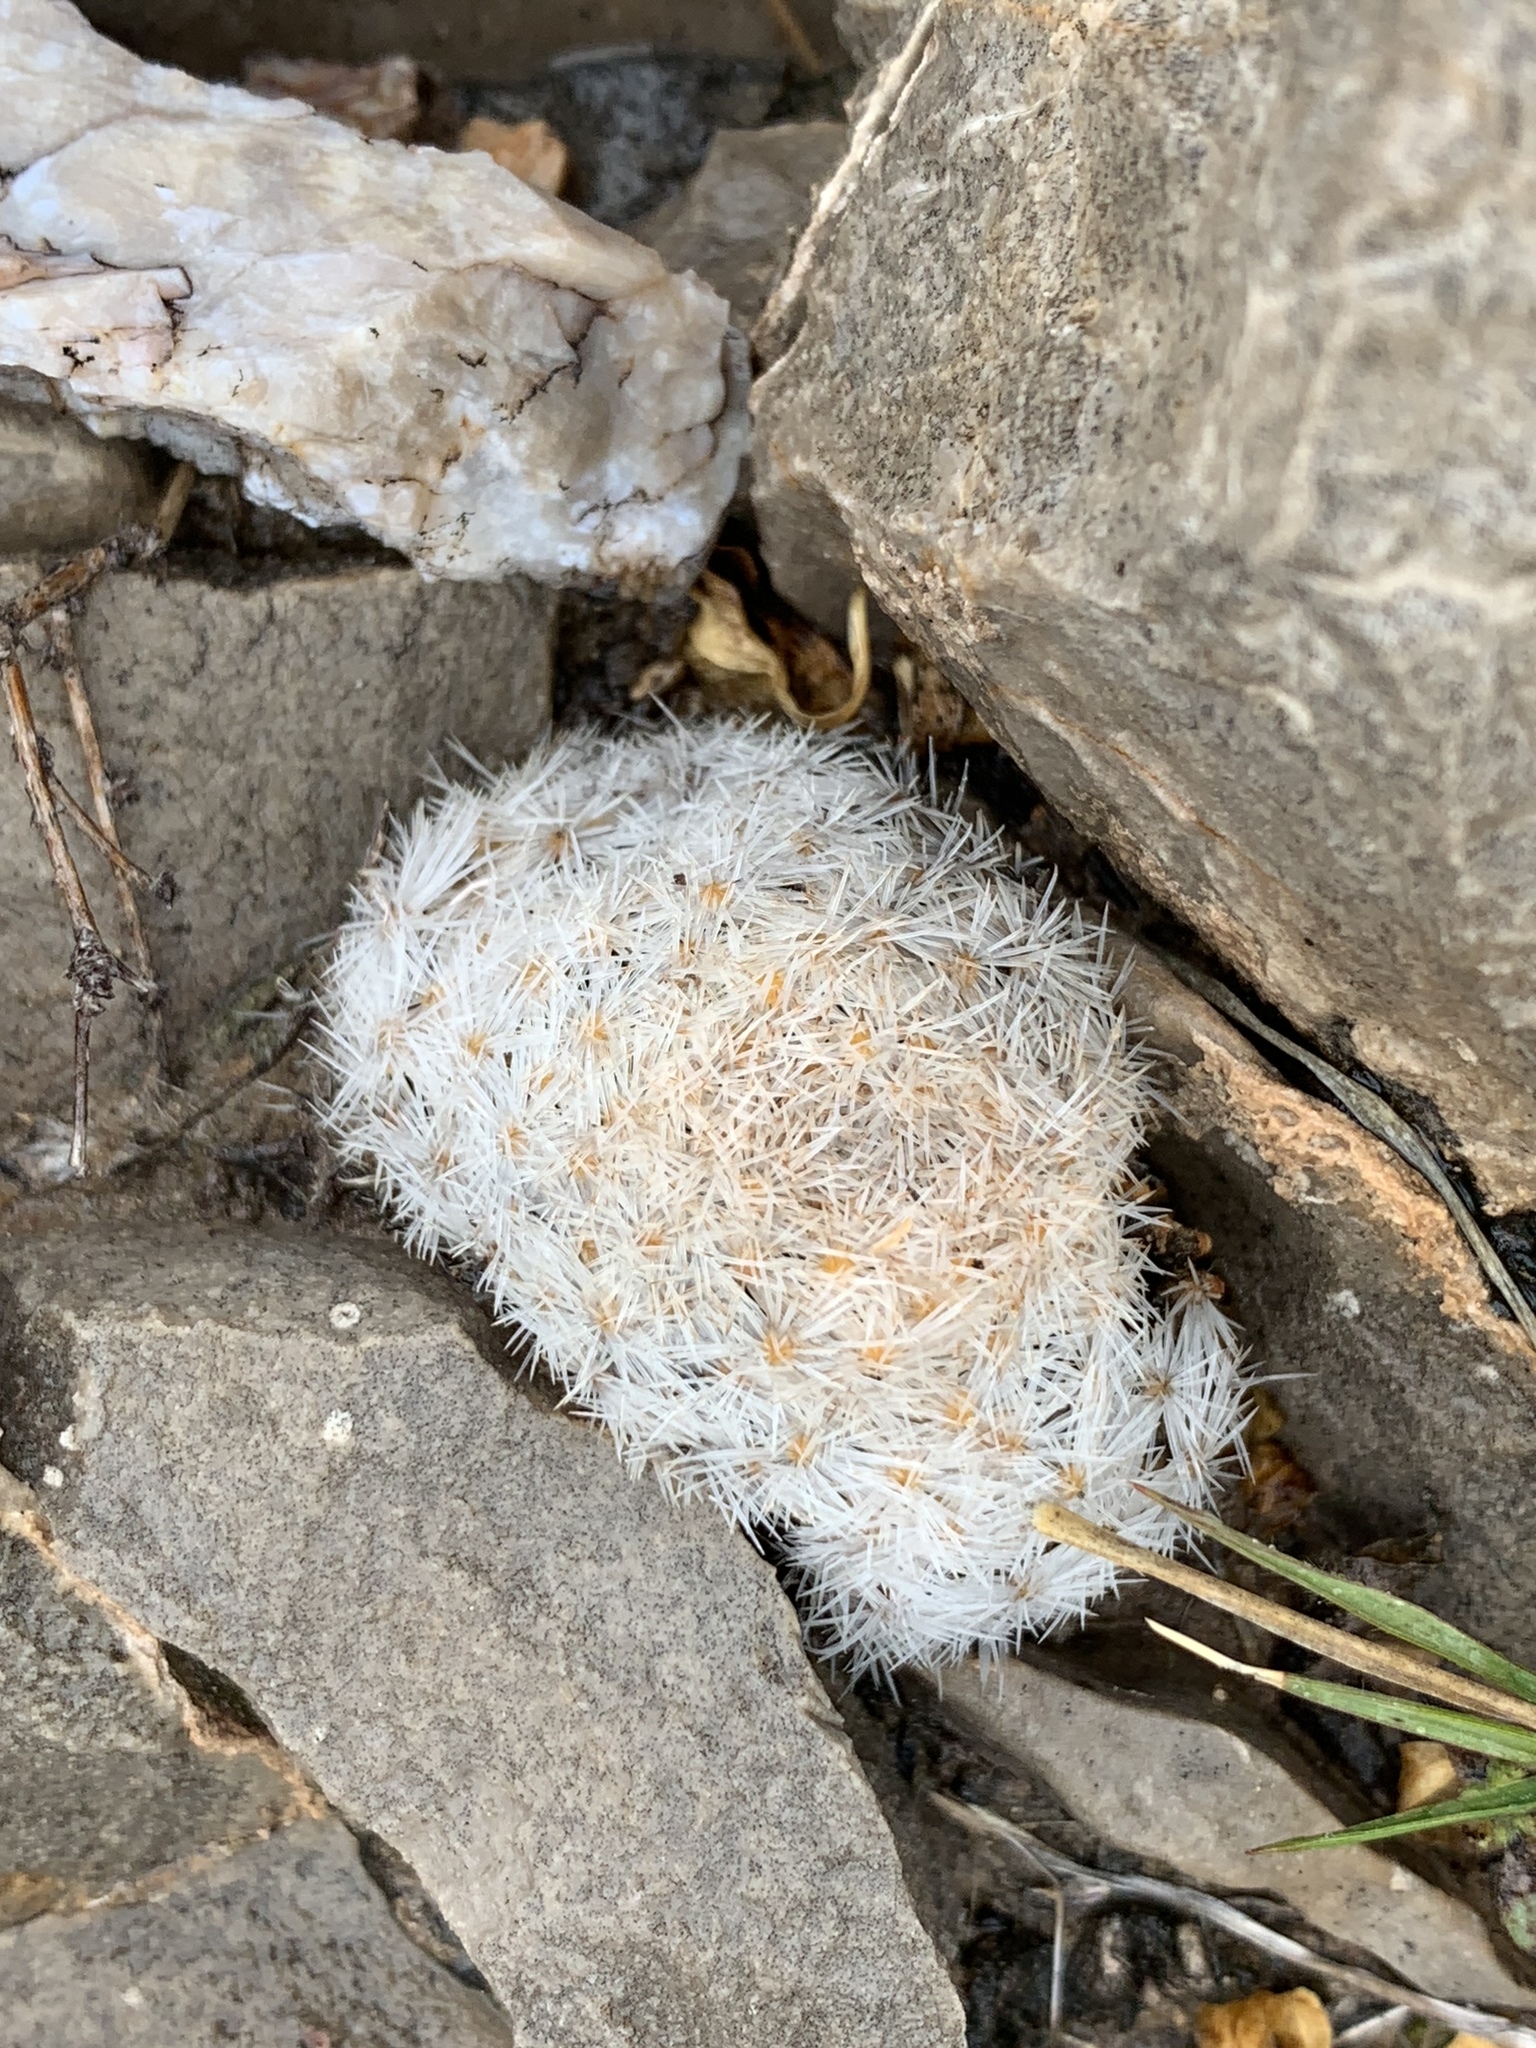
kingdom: Plantae
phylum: Tracheophyta
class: Magnoliopsida
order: Caryophyllales
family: Cactaceae
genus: Mammillaria
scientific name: Mammillaria lasiacantha
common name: Lace-spine nipple cactus
